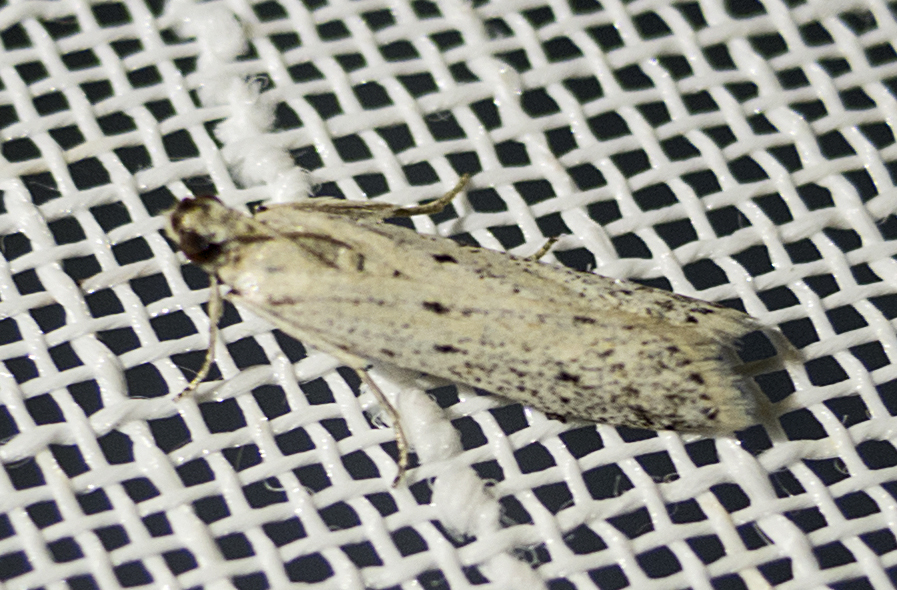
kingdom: Animalia
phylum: Arthropoda
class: Insecta
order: Lepidoptera
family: Pyralidae
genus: Phycitodes
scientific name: Phycitodes lacteella
